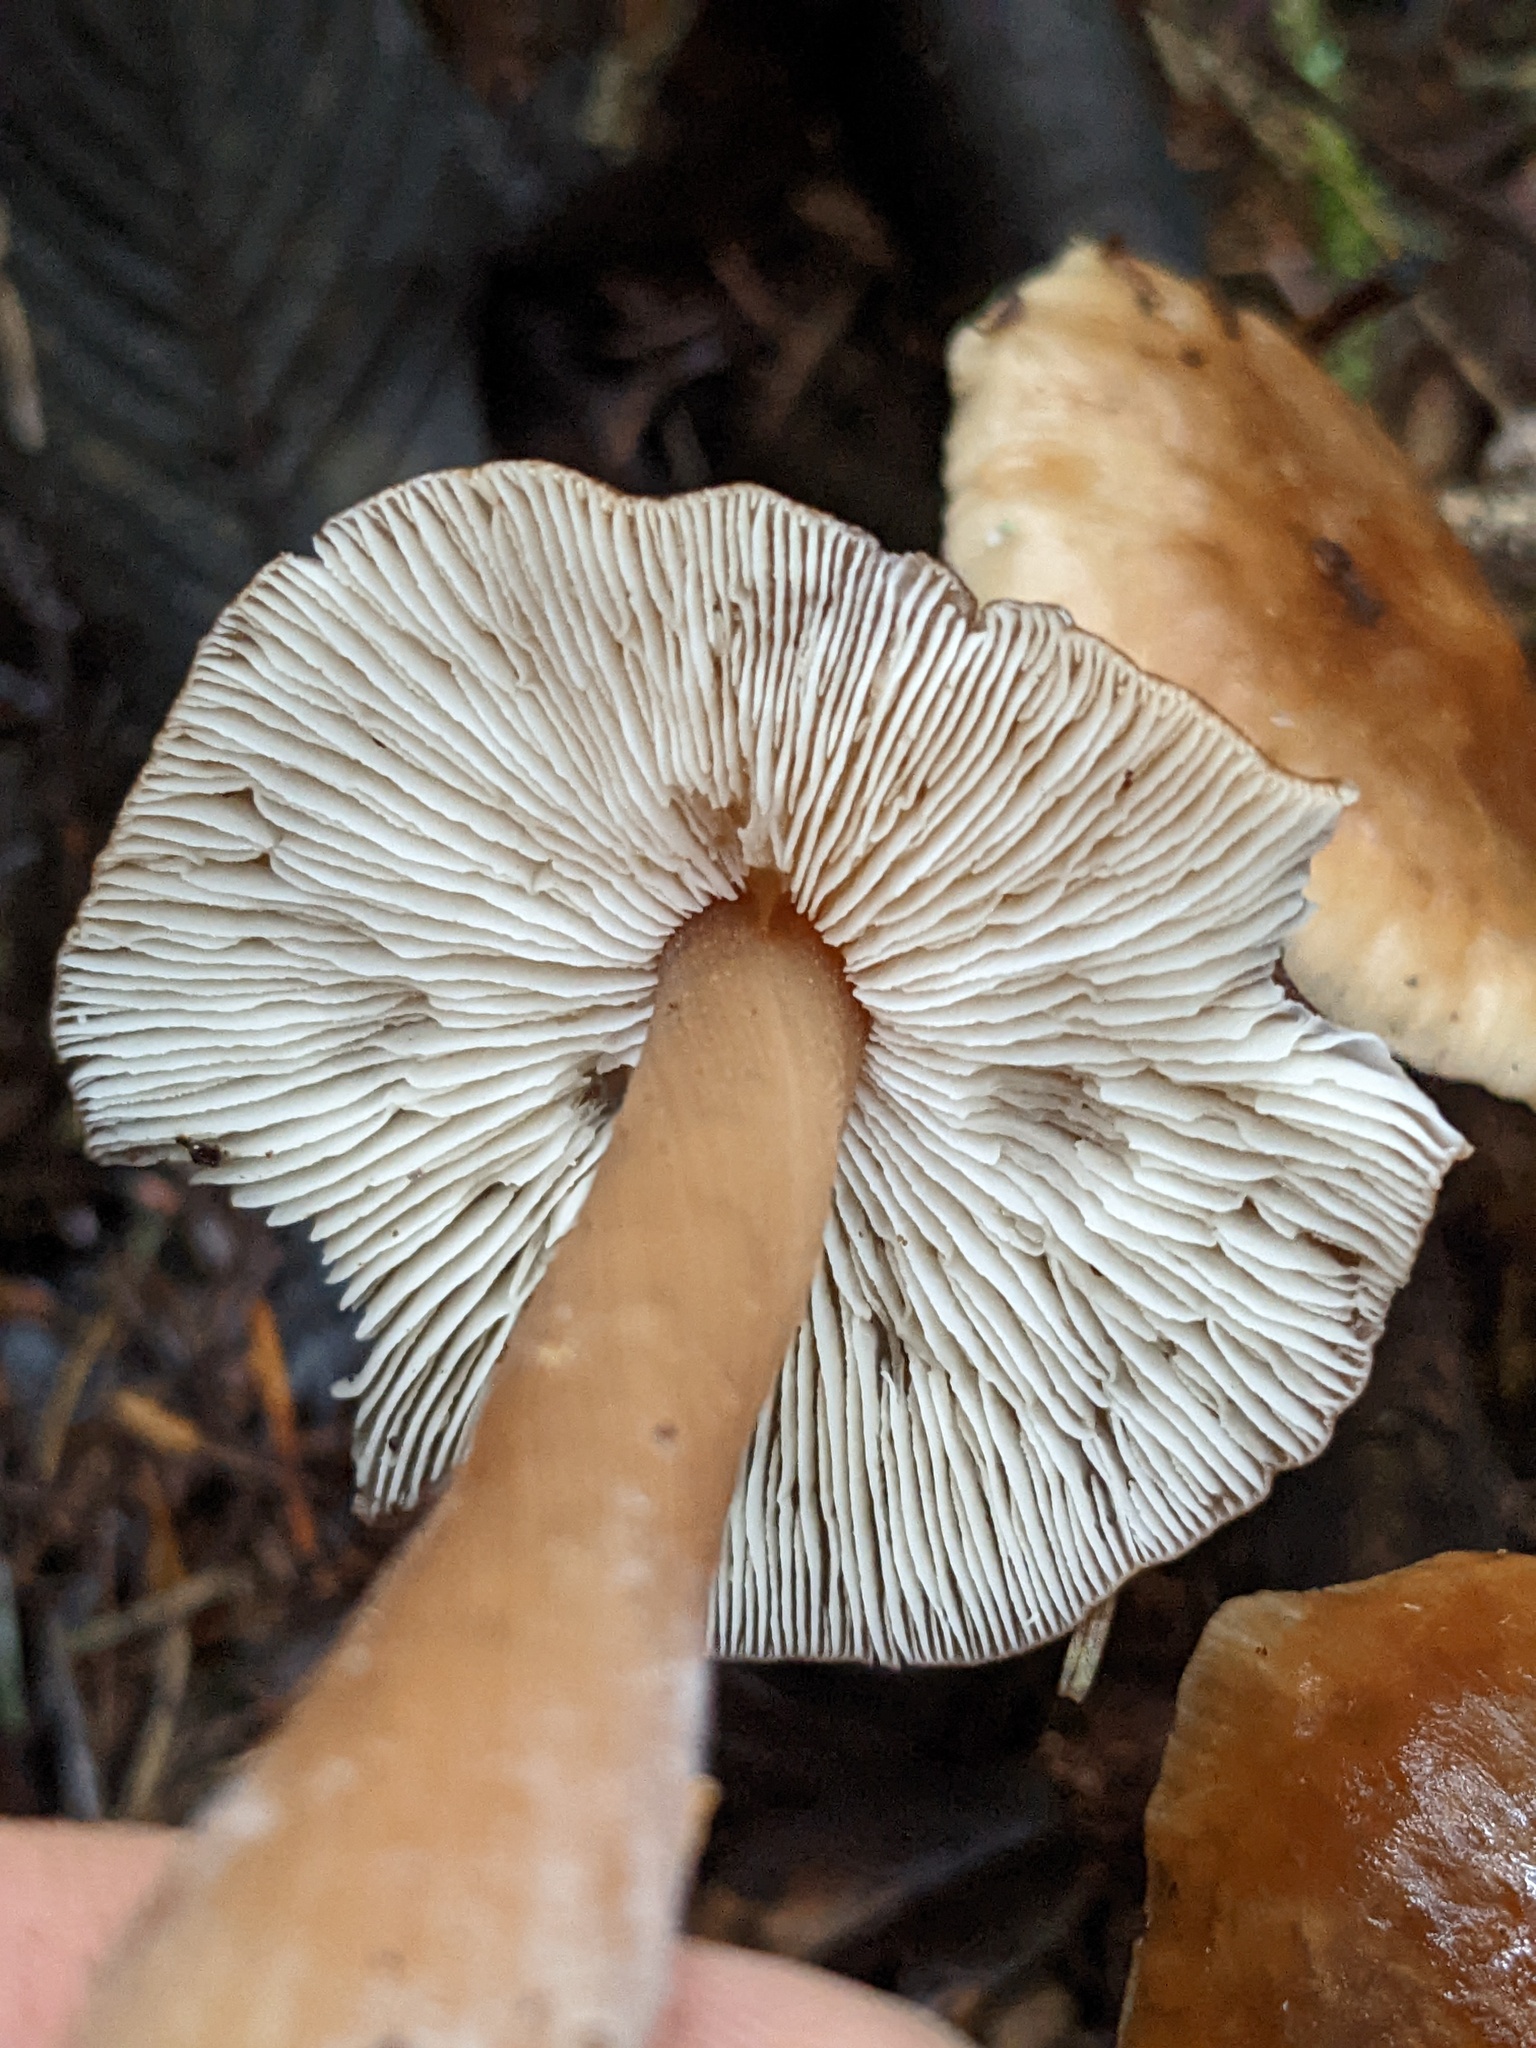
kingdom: Fungi
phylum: Basidiomycota
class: Agaricomycetes
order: Agaricales
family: Omphalotaceae
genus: Rhodocollybia
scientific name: Rhodocollybia butyracea
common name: Butter cap
